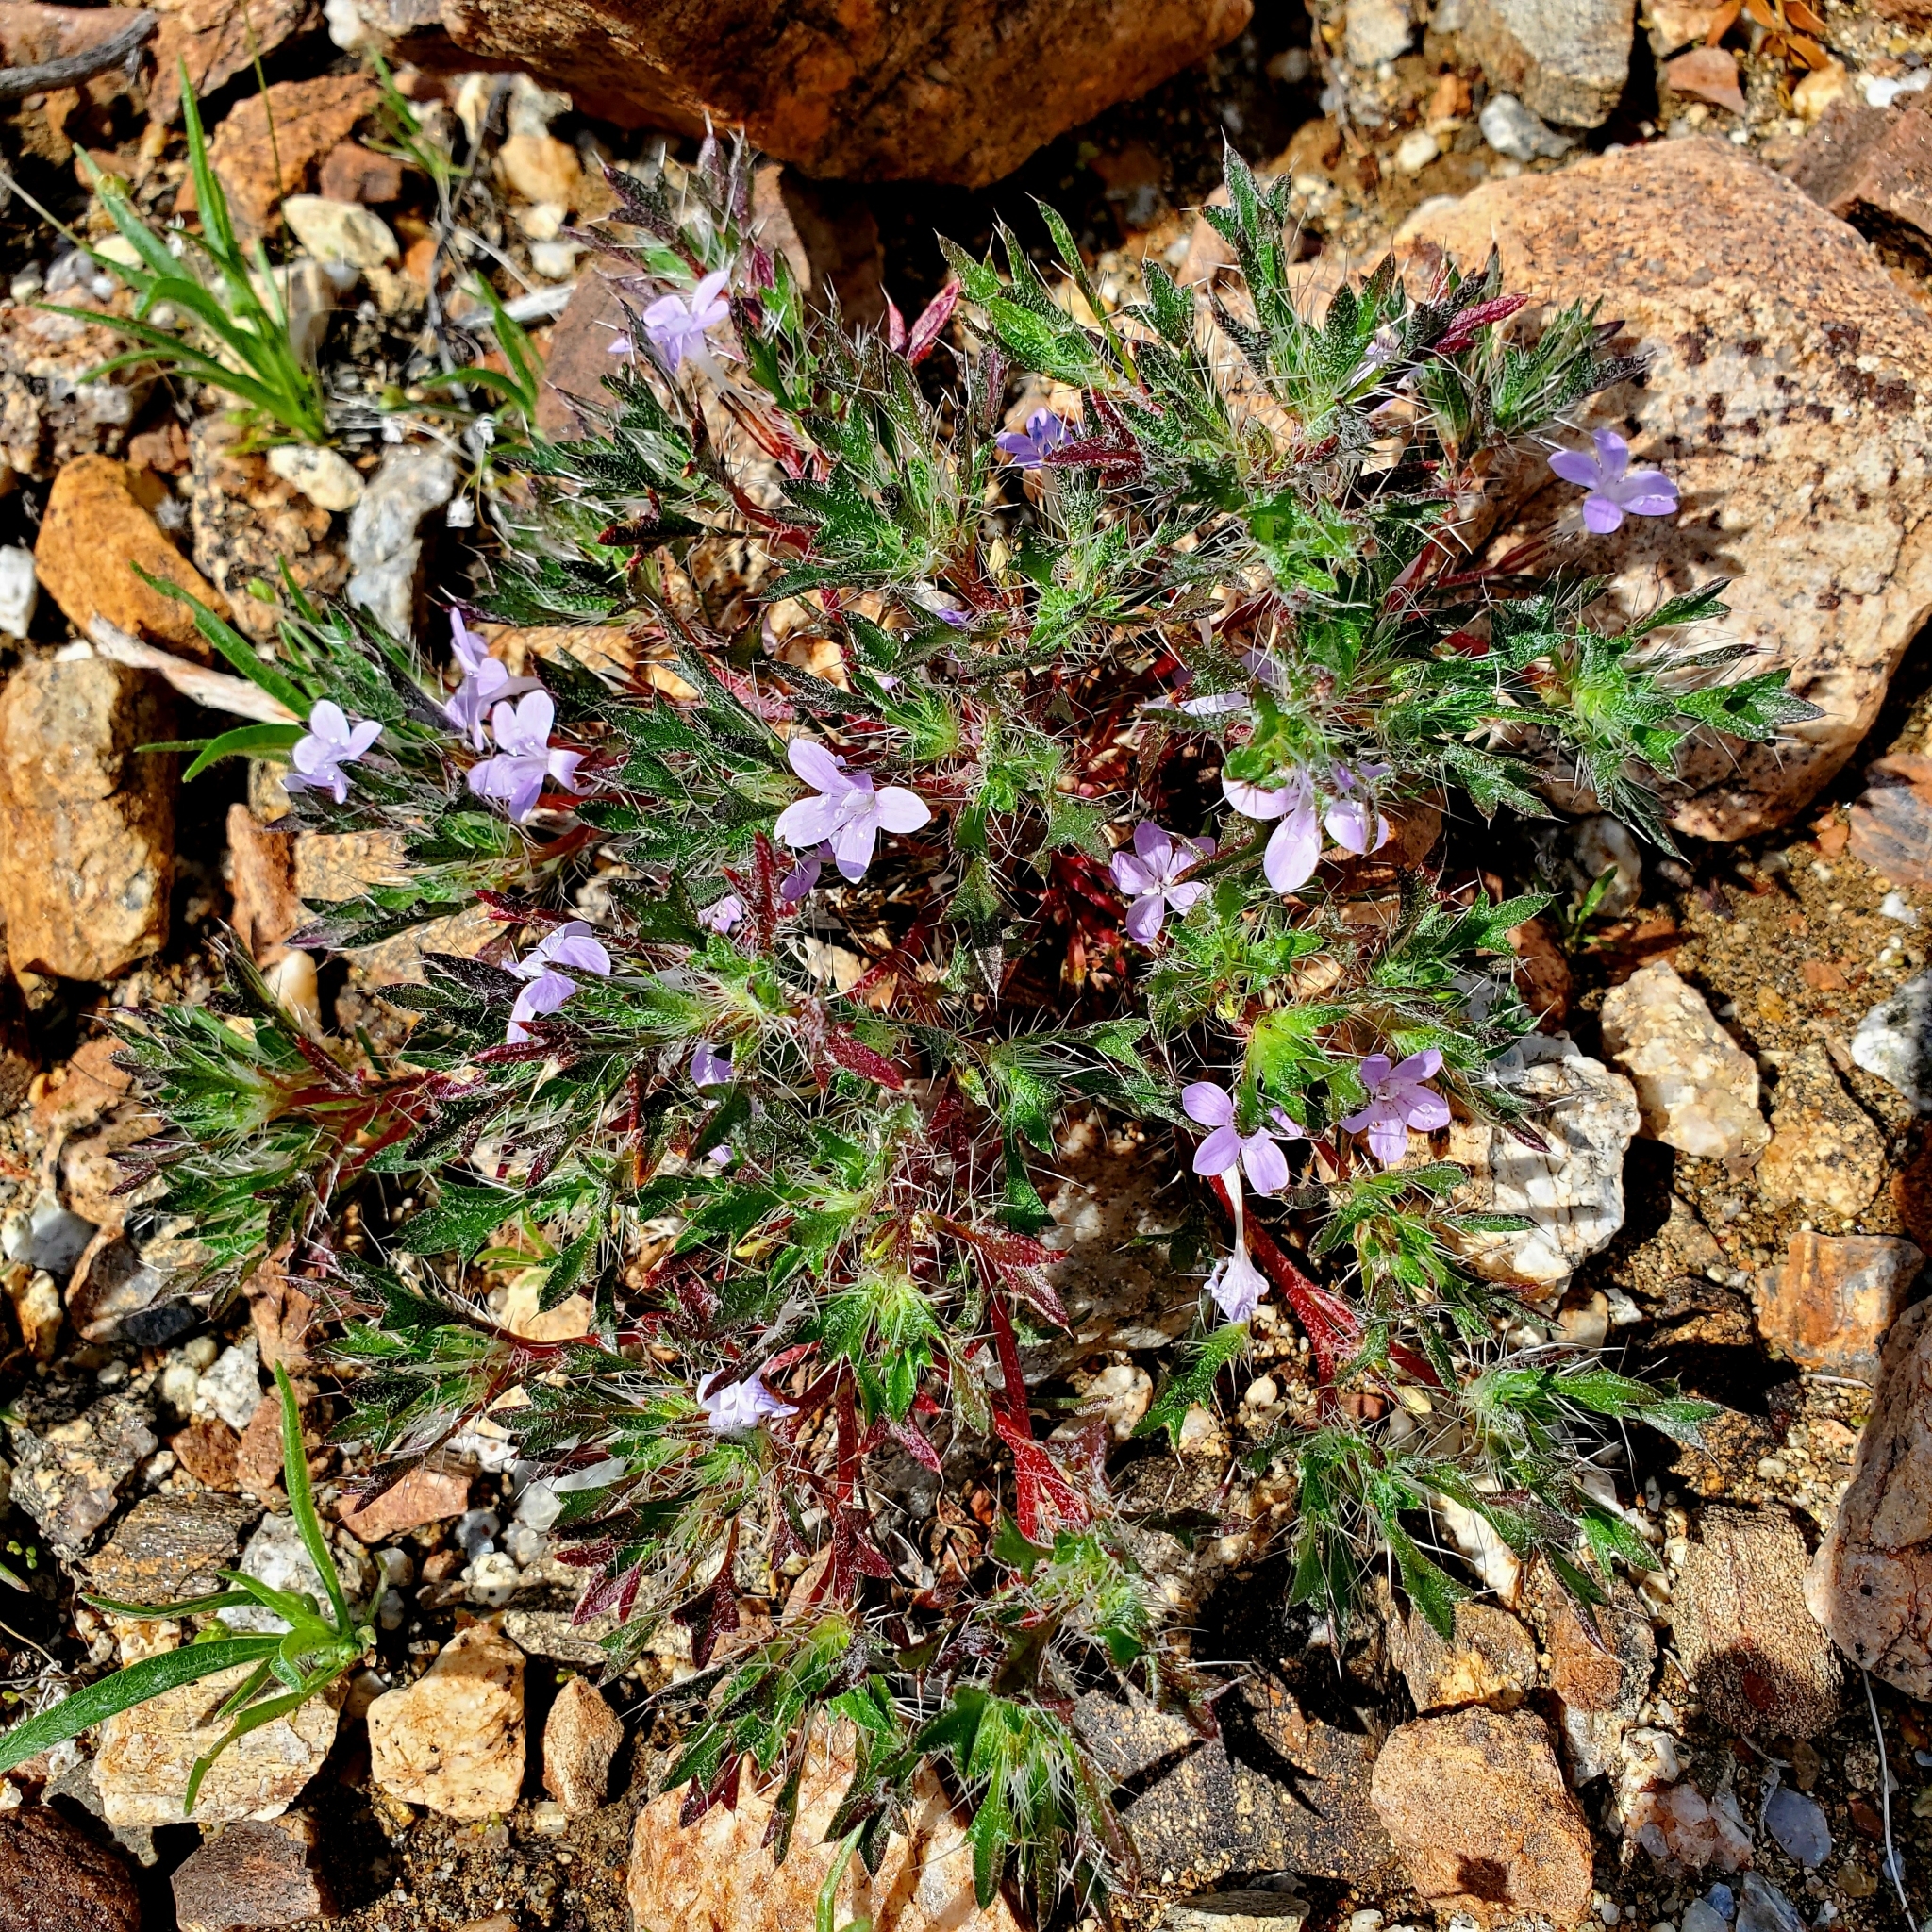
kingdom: Plantae
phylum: Tracheophyta
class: Magnoliopsida
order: Ericales
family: Polemoniaceae
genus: Langloisia
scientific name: Langloisia setosissima
